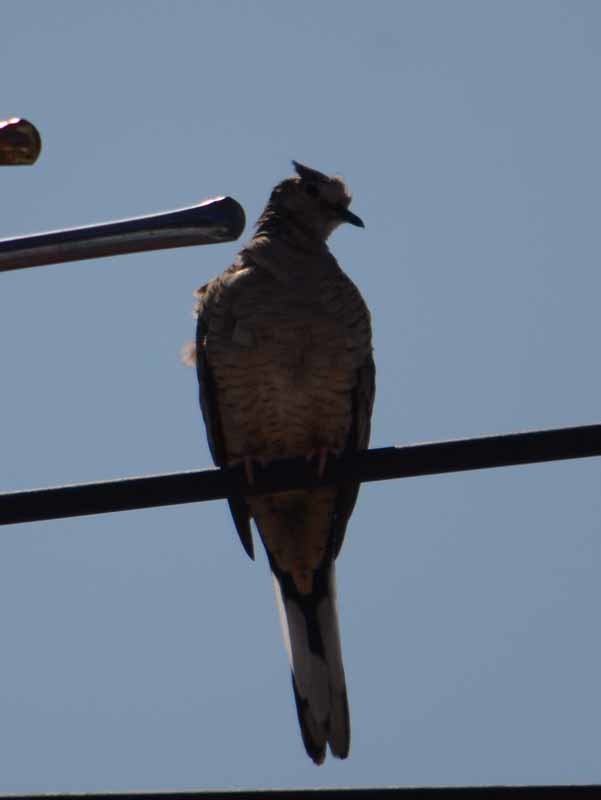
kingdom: Animalia
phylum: Chordata
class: Aves
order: Columbiformes
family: Columbidae
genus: Columbina
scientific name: Columbina inca
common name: Inca dove
